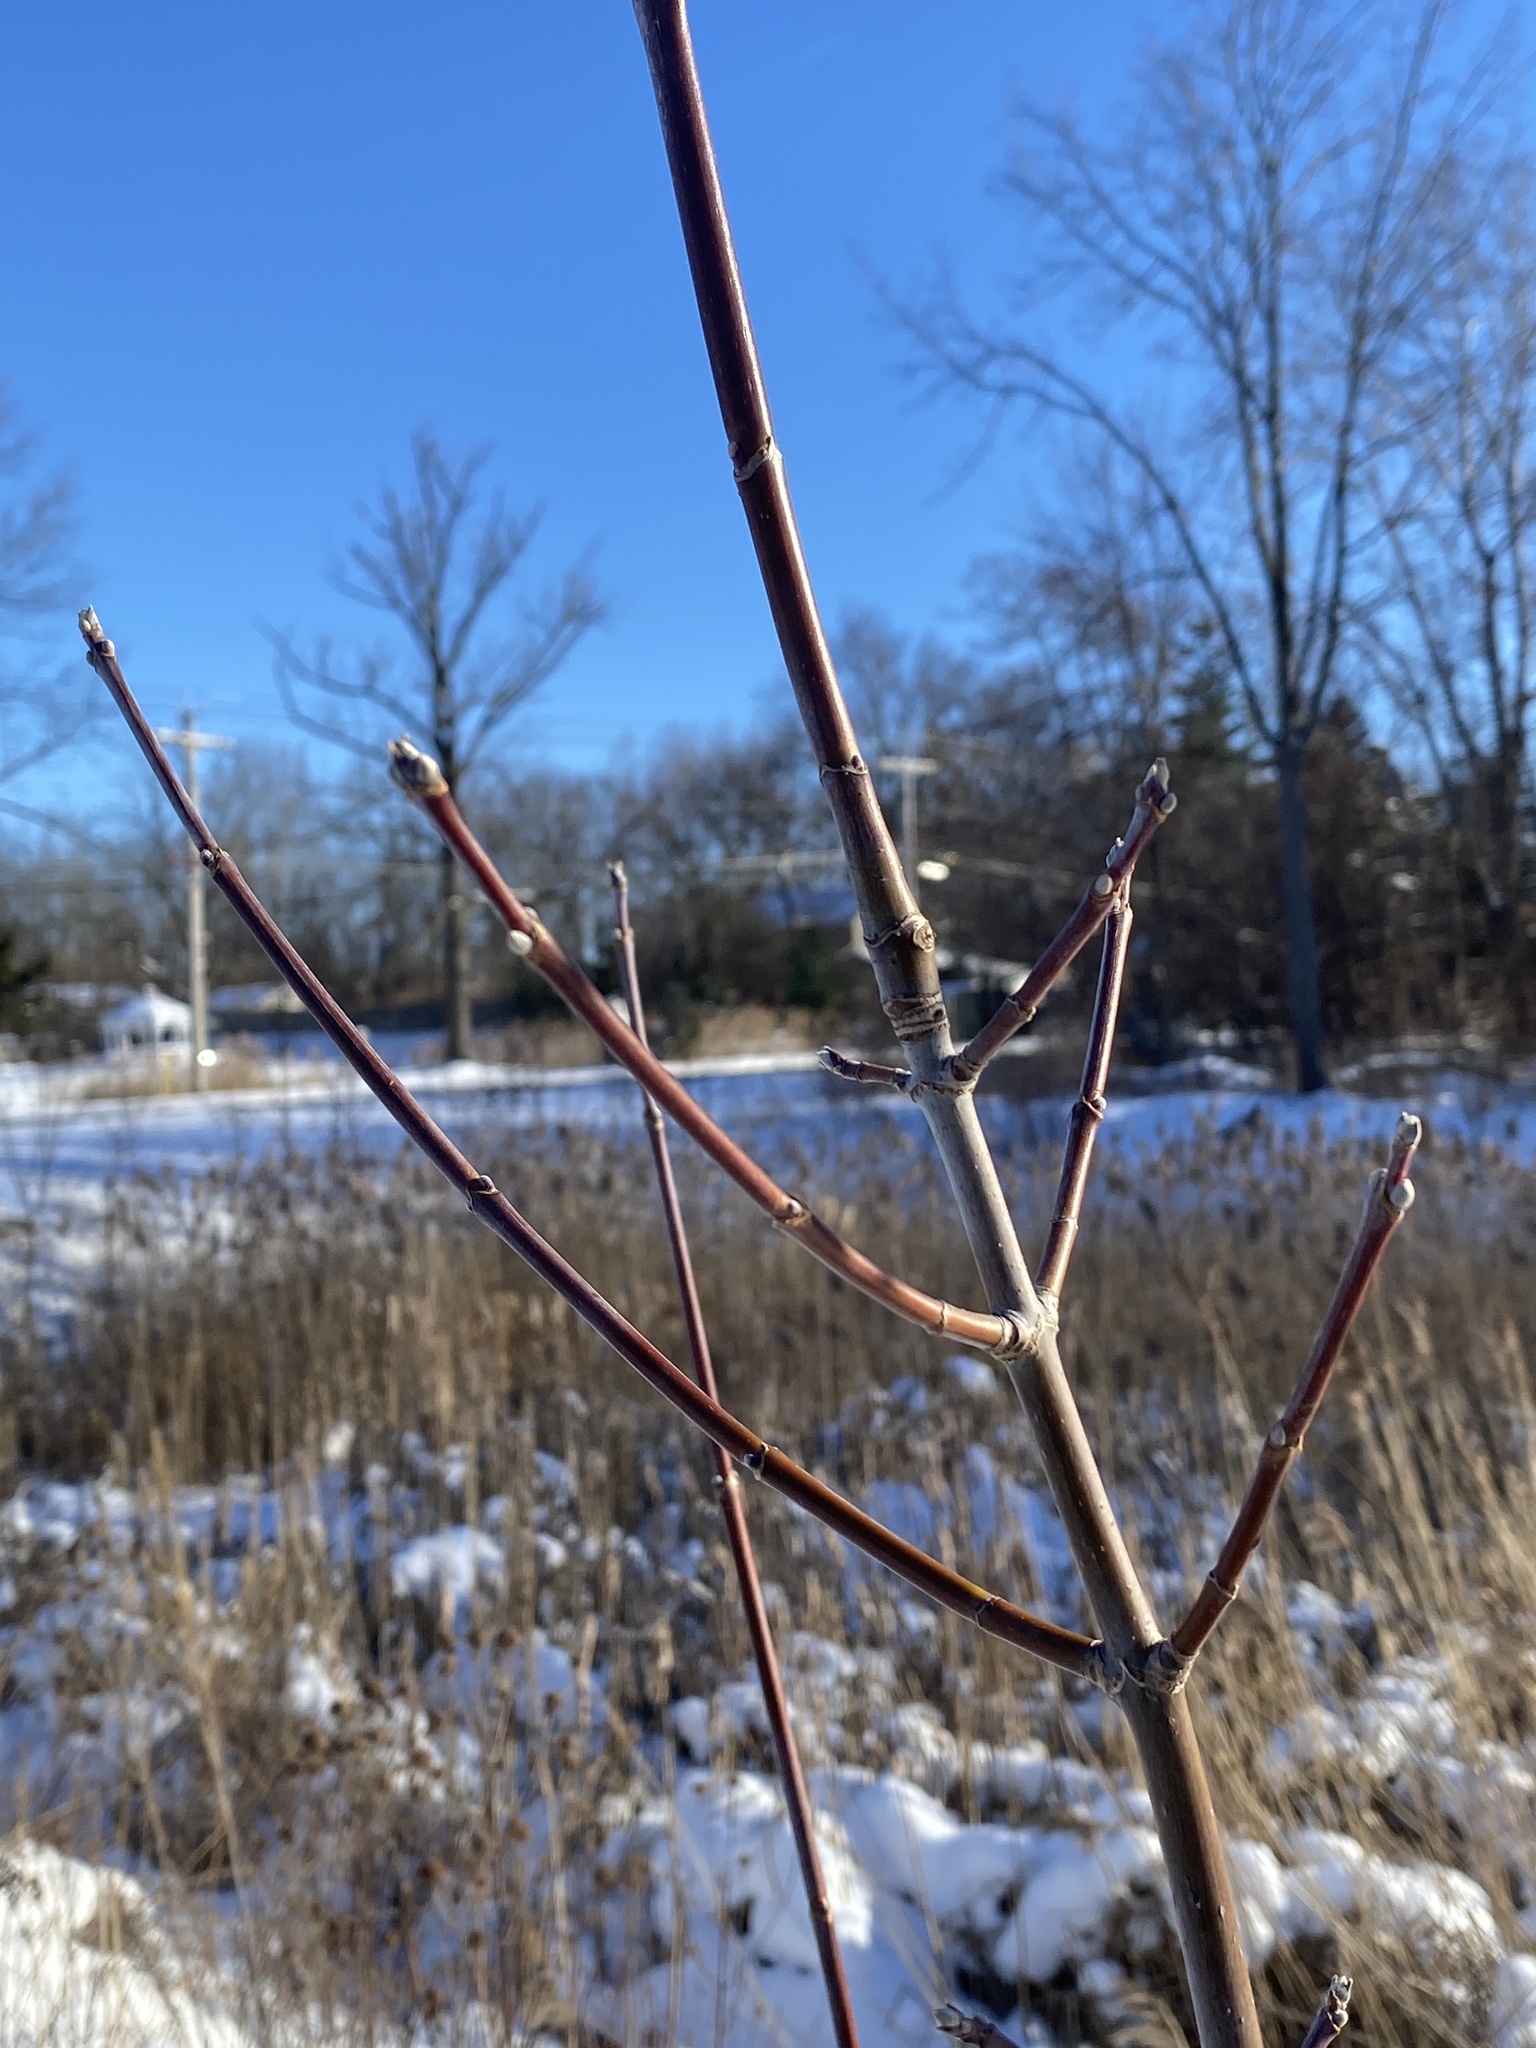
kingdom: Plantae
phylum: Tracheophyta
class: Magnoliopsida
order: Sapindales
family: Sapindaceae
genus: Acer
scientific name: Acer negundo
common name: Ashleaf maple
